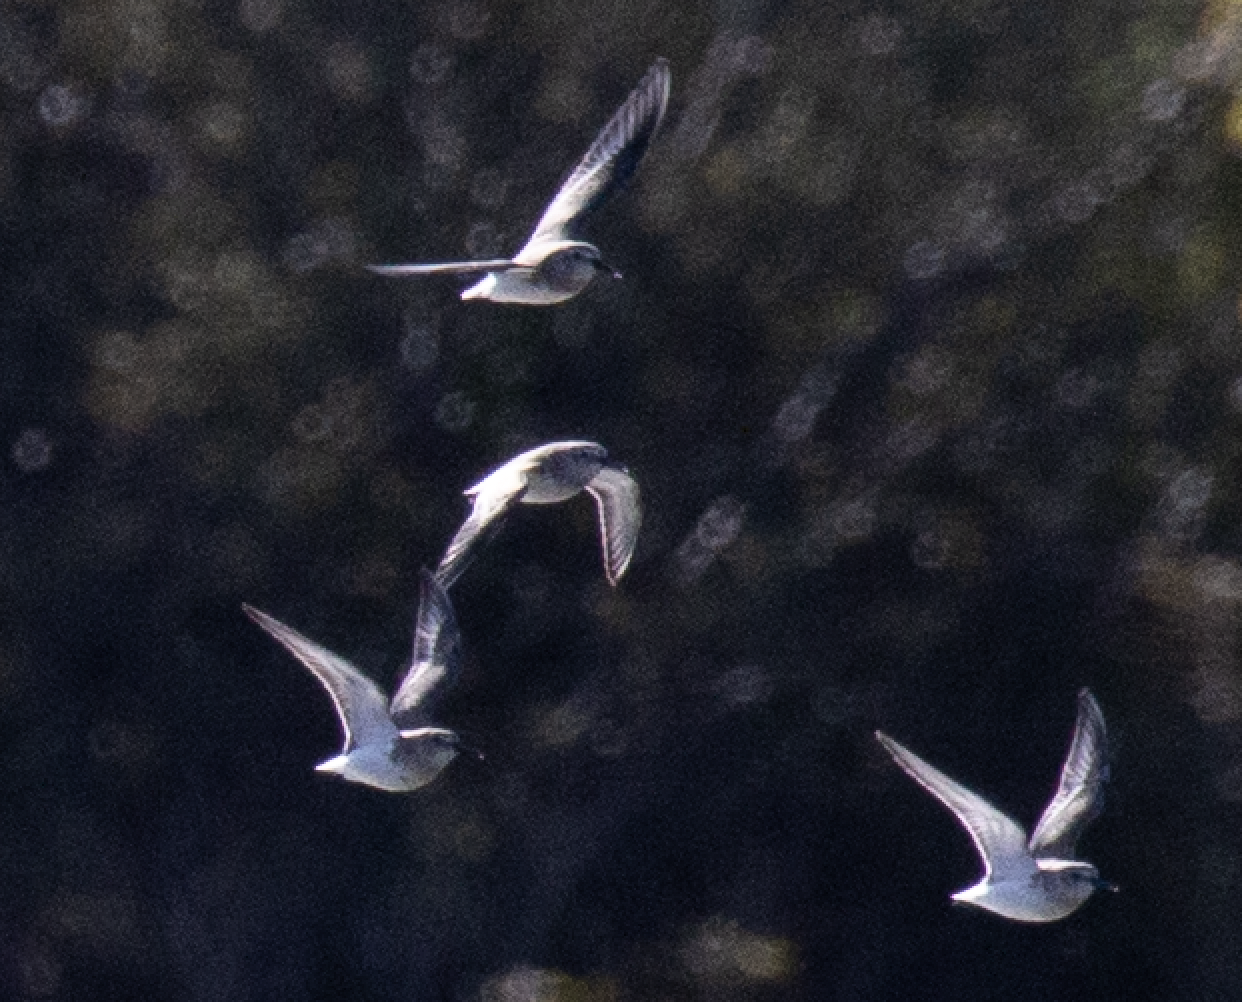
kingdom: Animalia
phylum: Chordata
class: Aves
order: Charadriiformes
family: Scolopacidae
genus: Calidris
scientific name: Calidris alpina
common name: Dunlin
